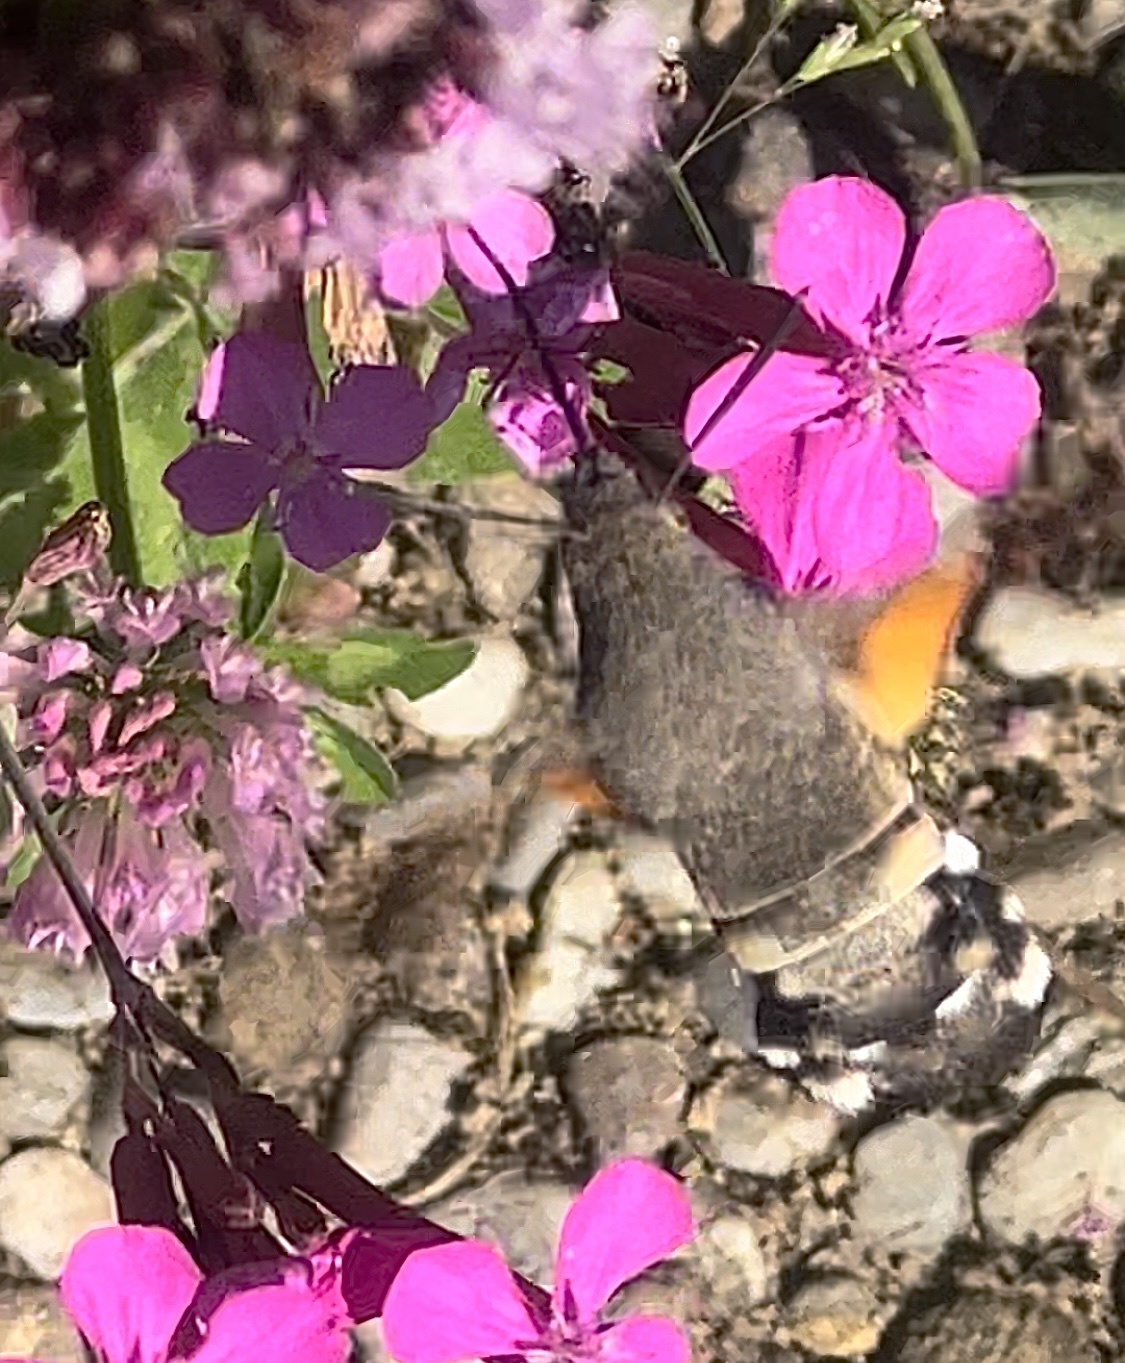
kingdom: Animalia
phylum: Arthropoda
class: Insecta
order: Lepidoptera
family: Sphingidae
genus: Macroglossum
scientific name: Macroglossum stellatarum
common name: Humming-bird hawk-moth
